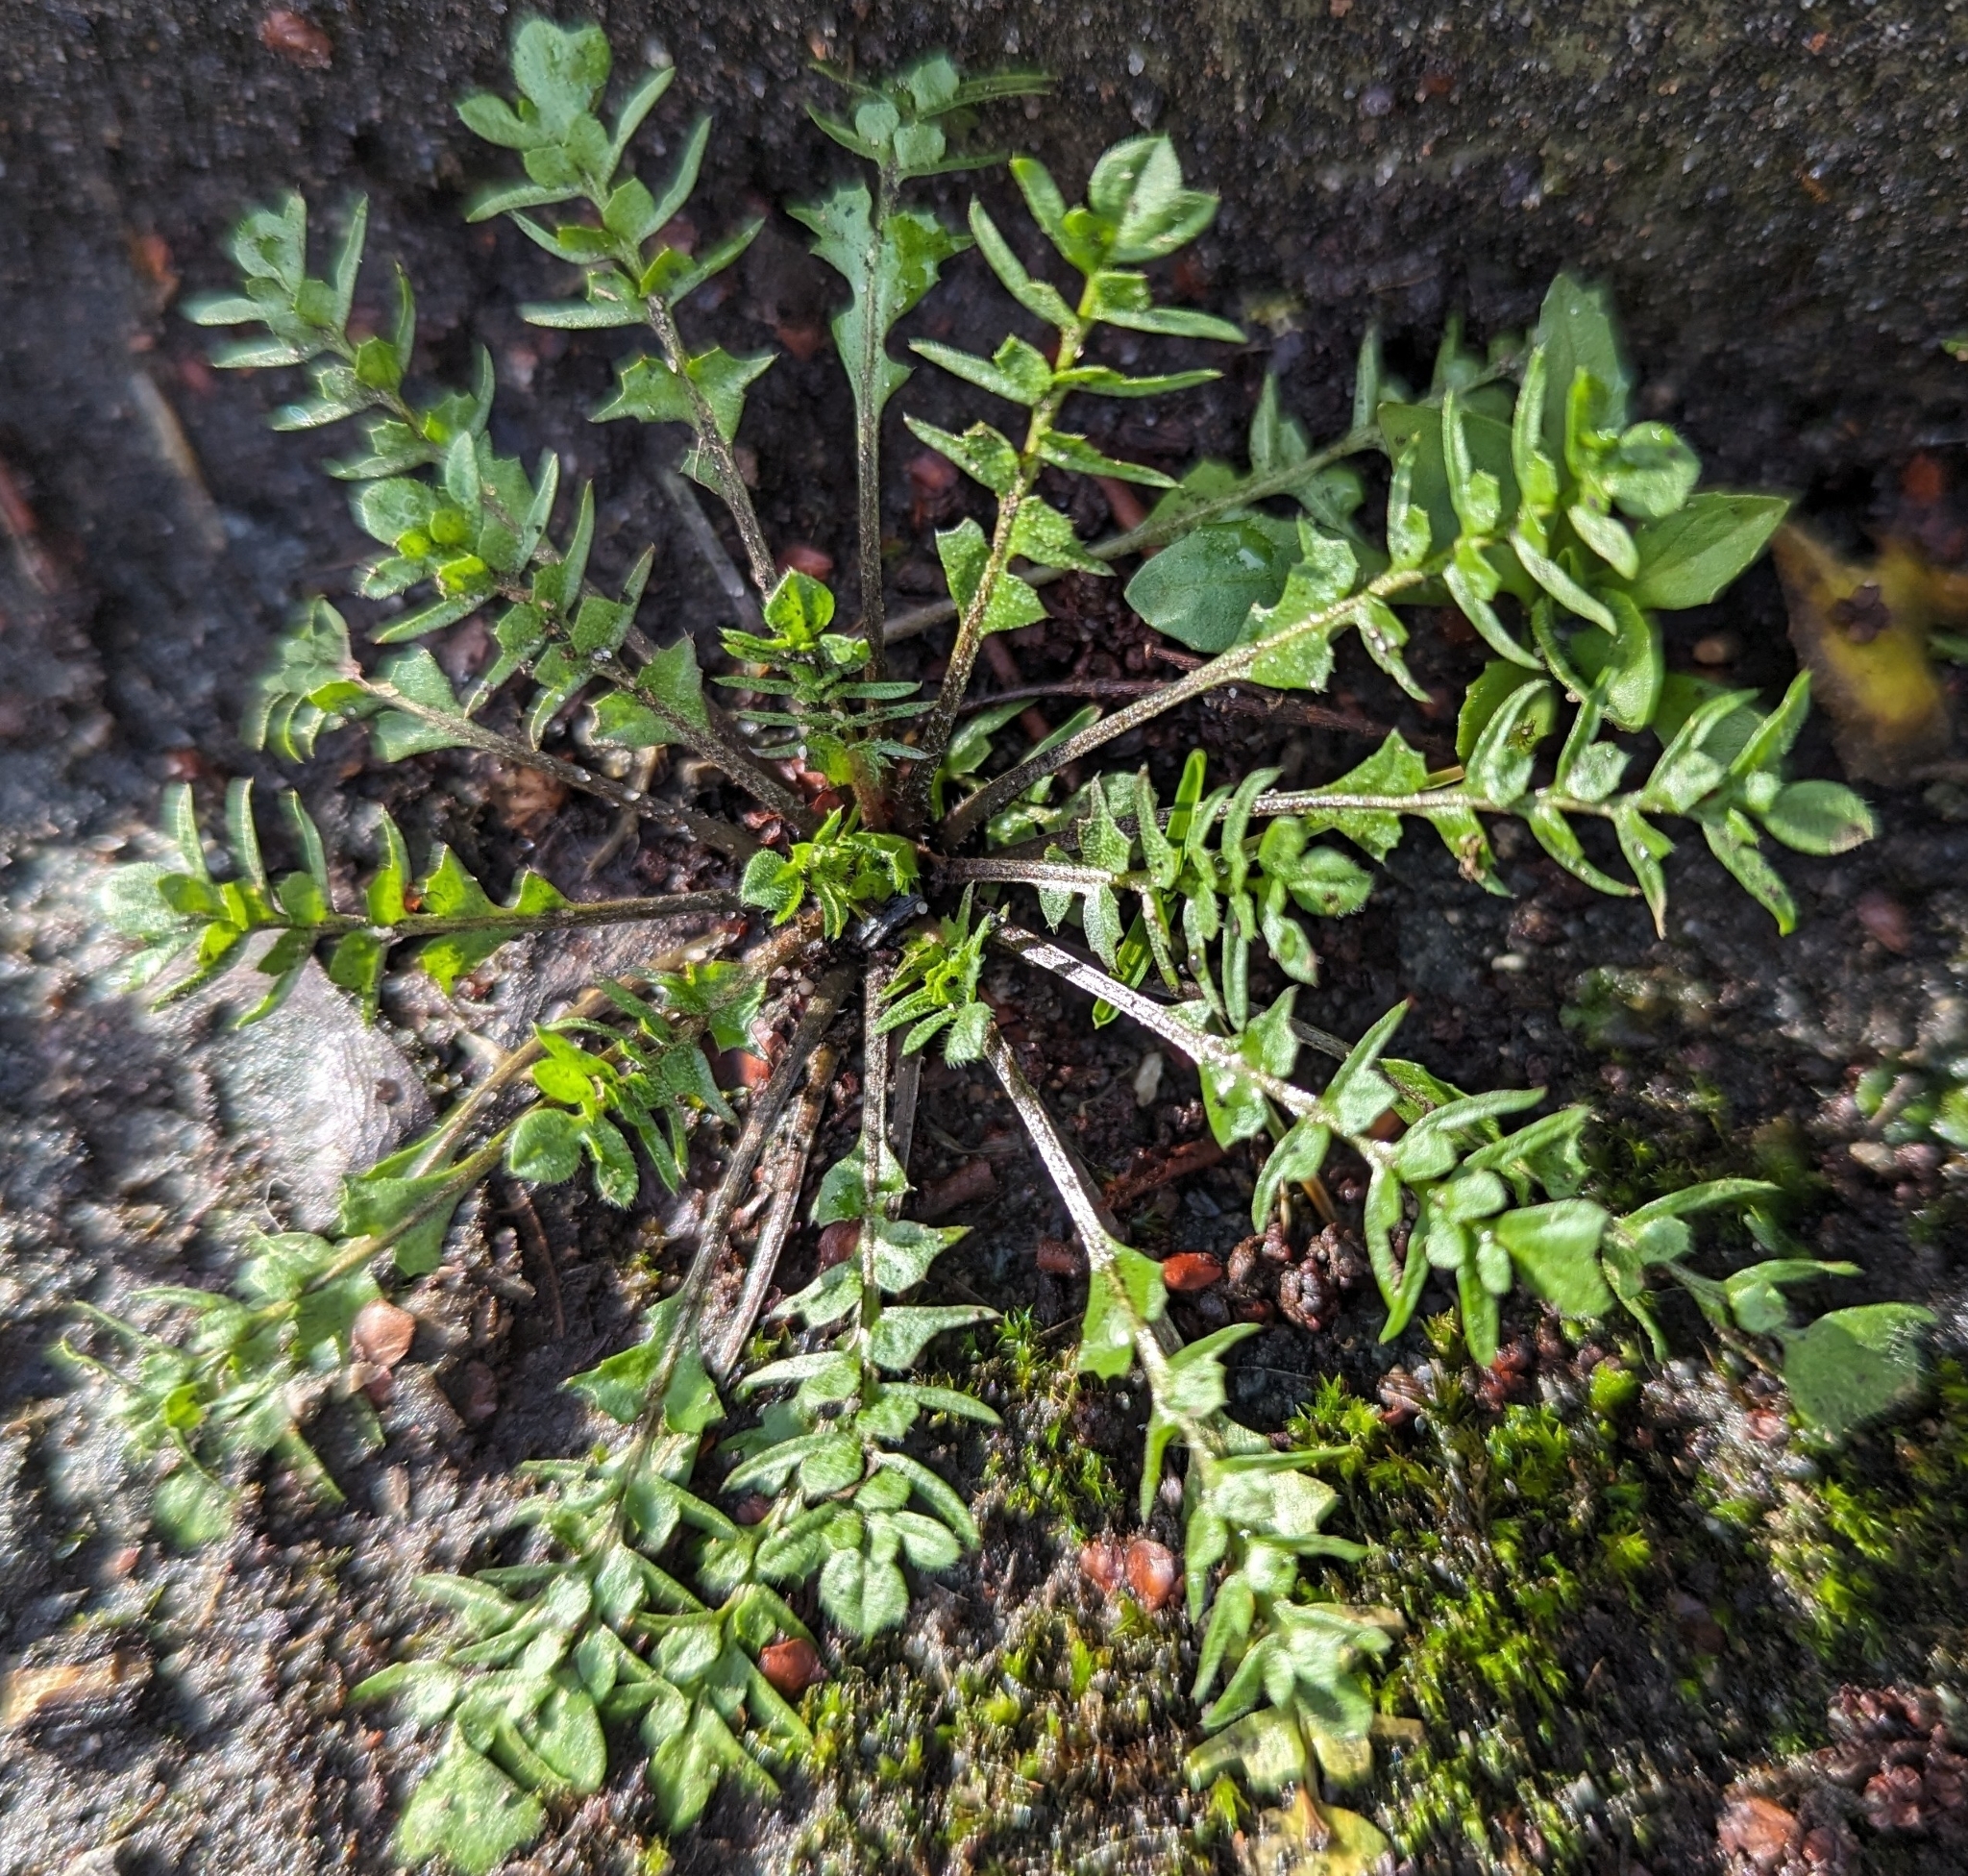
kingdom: Plantae
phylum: Tracheophyta
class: Magnoliopsida
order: Brassicales
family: Brassicaceae
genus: Capsella
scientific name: Capsella bursa-pastoris
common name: Shepherd's purse
